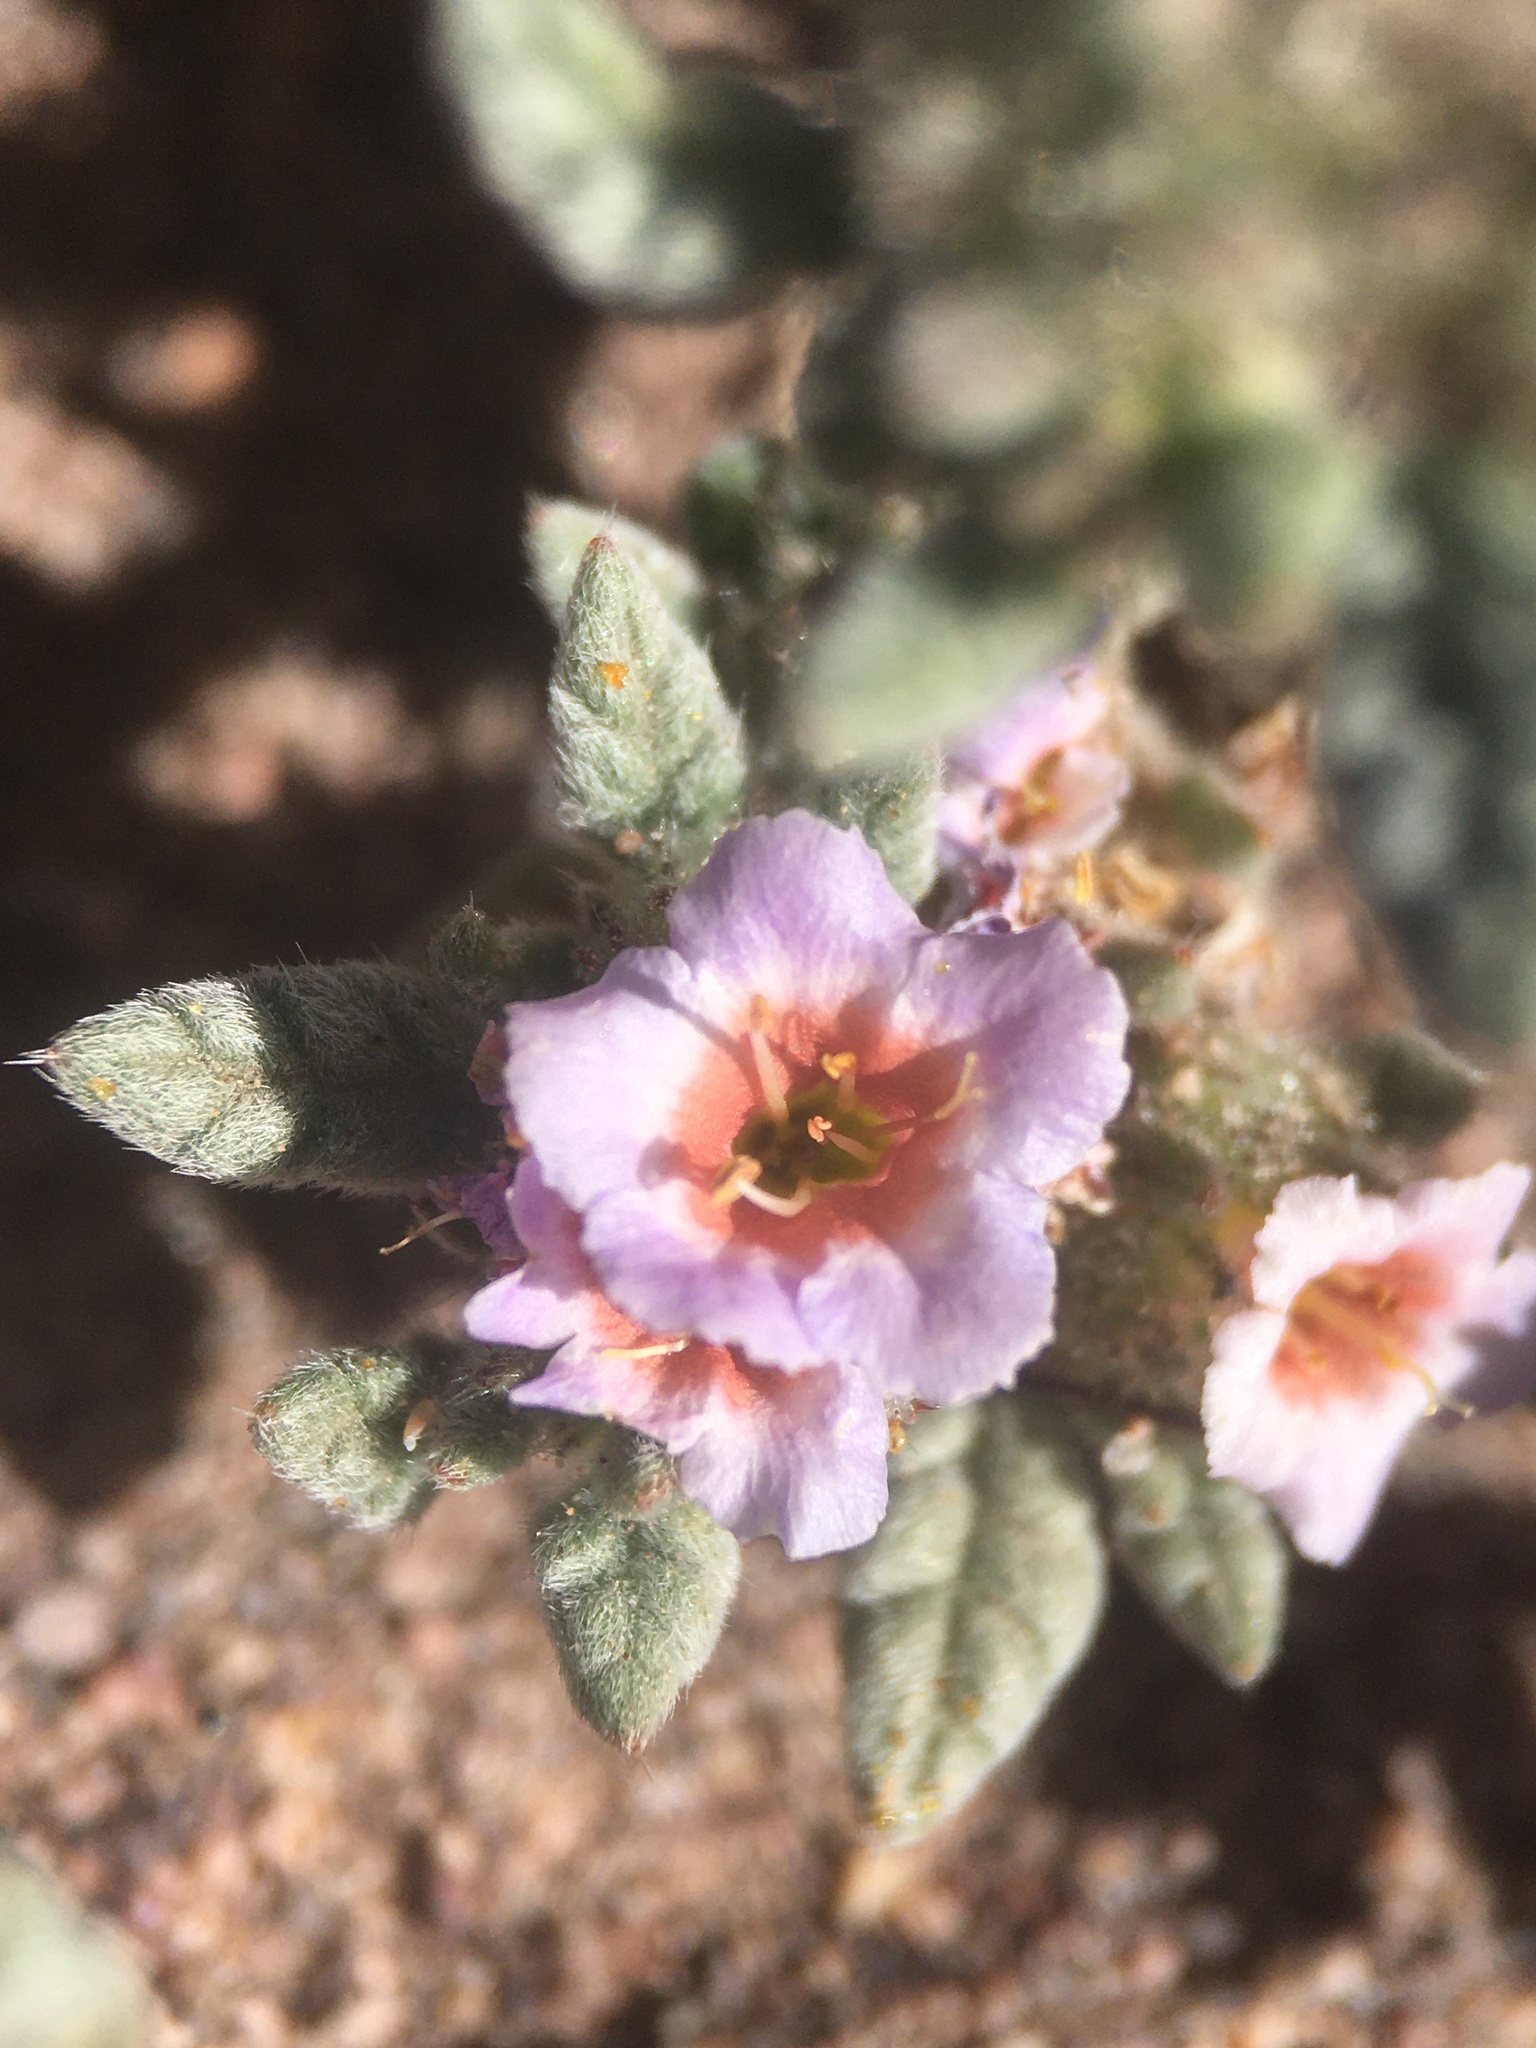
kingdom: Plantae
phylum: Tracheophyta
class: Magnoliopsida
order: Boraginales
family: Ehretiaceae
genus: Tiquilia
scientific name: Tiquilia atacamensis
